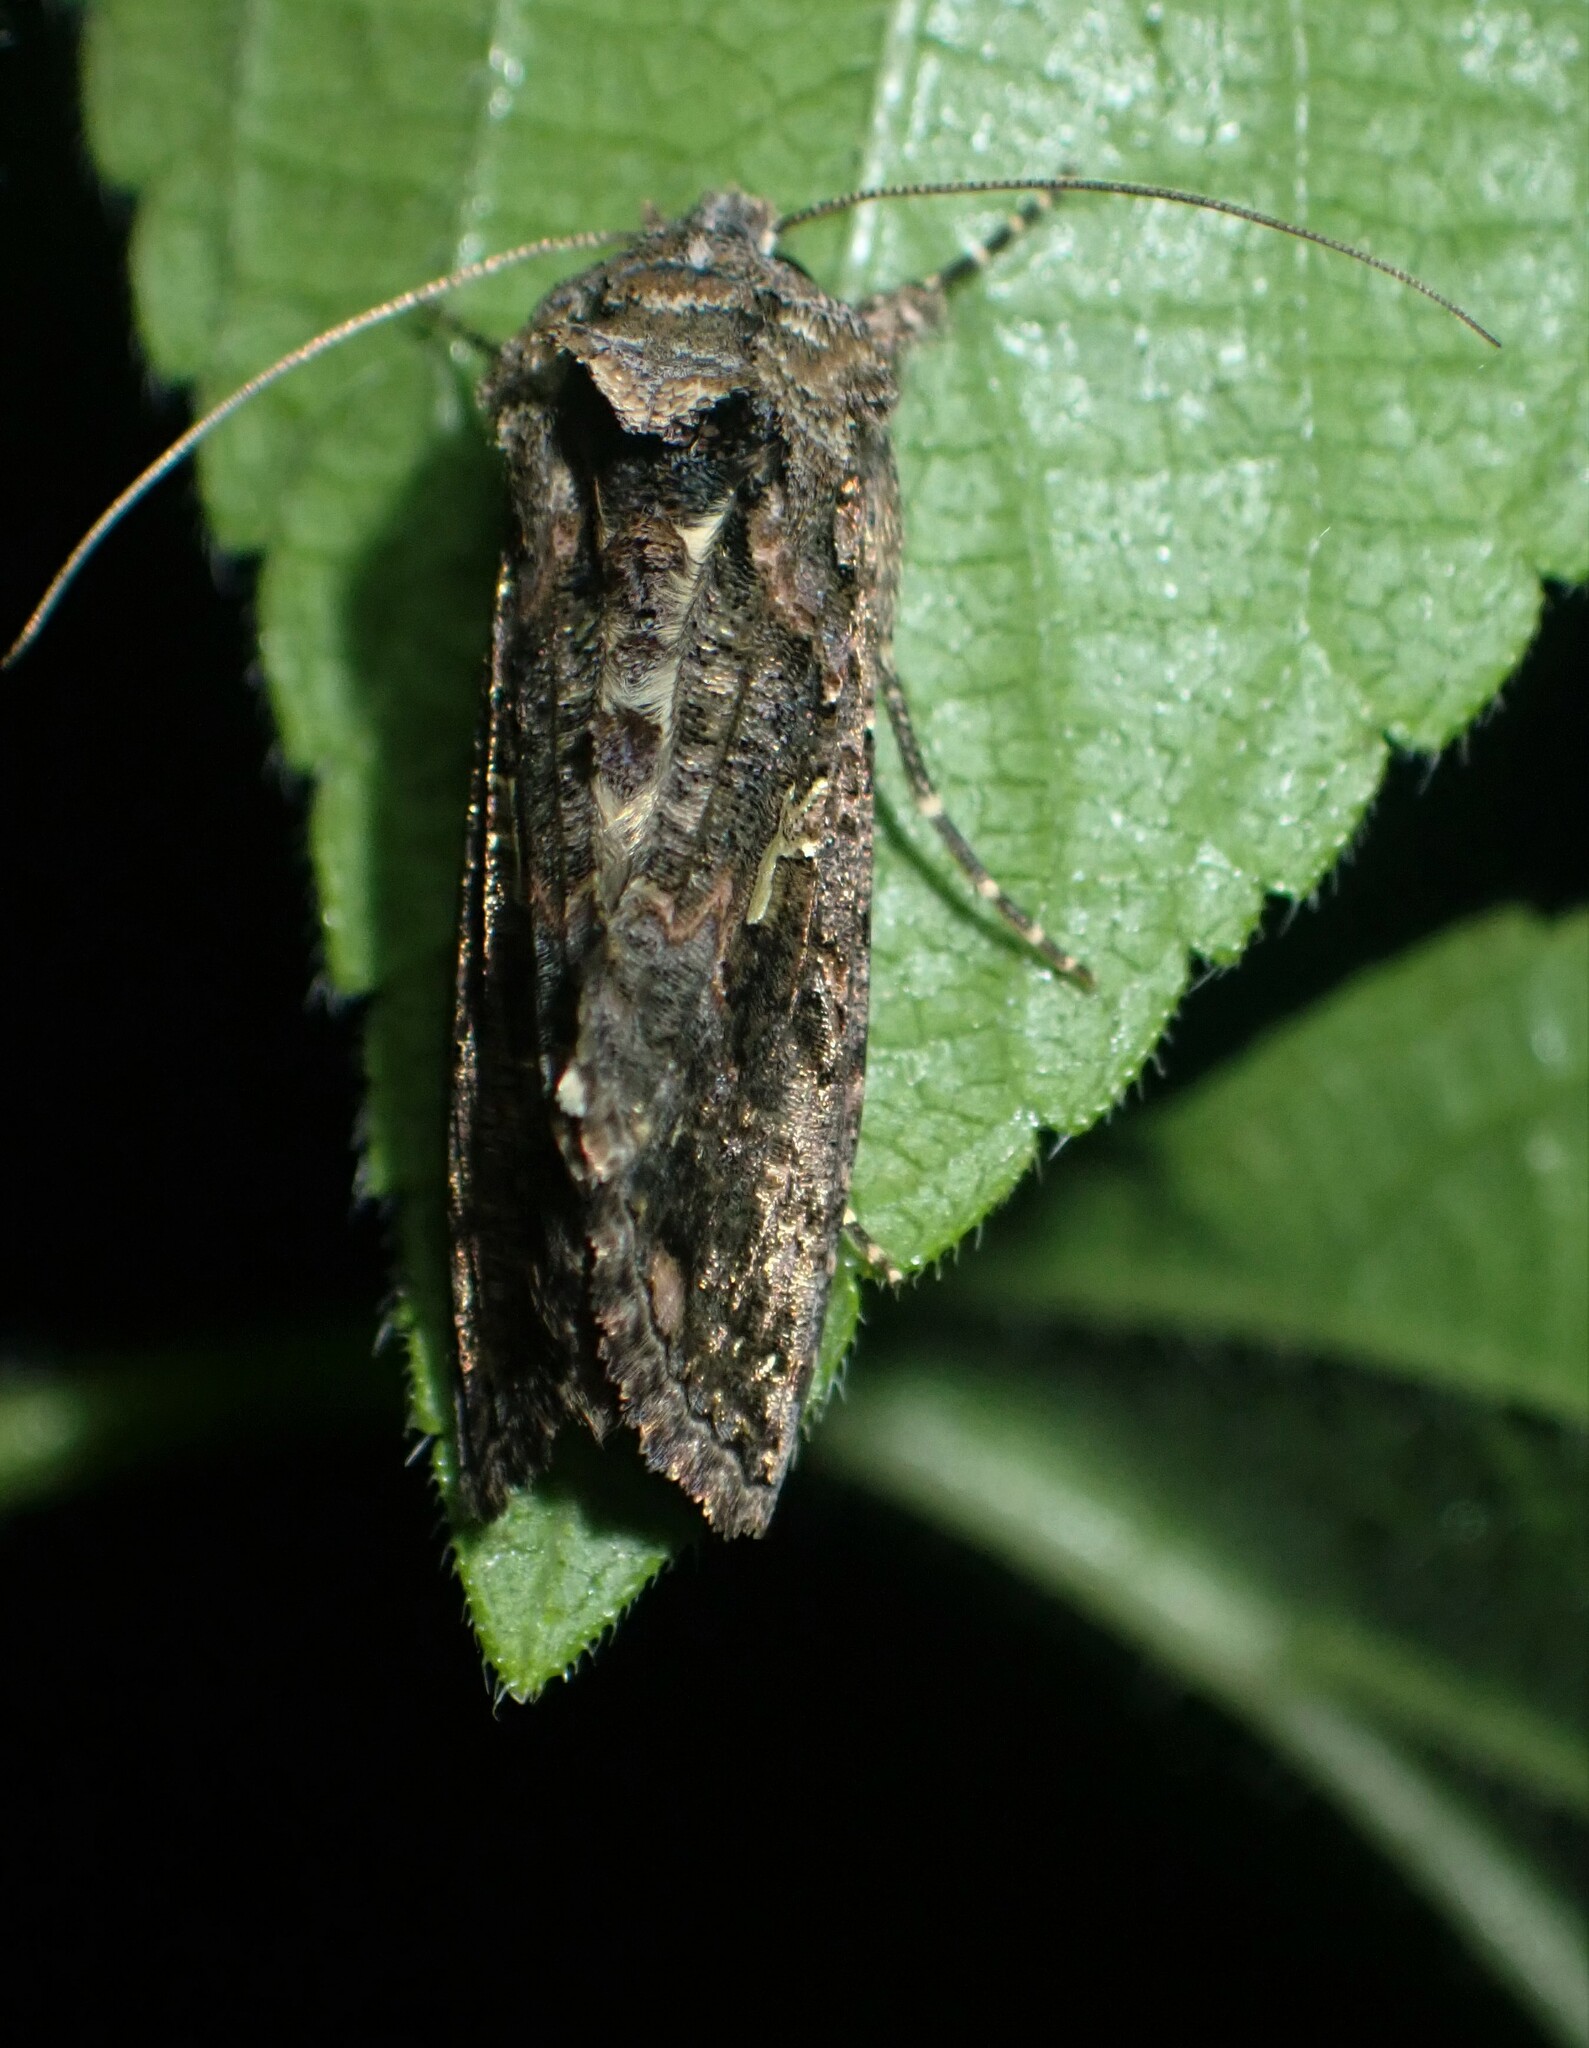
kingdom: Animalia
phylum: Arthropoda
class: Insecta
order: Lepidoptera
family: Noctuidae
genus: Ctenoplusia
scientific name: Ctenoplusia limbirena
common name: Scar bank gem
